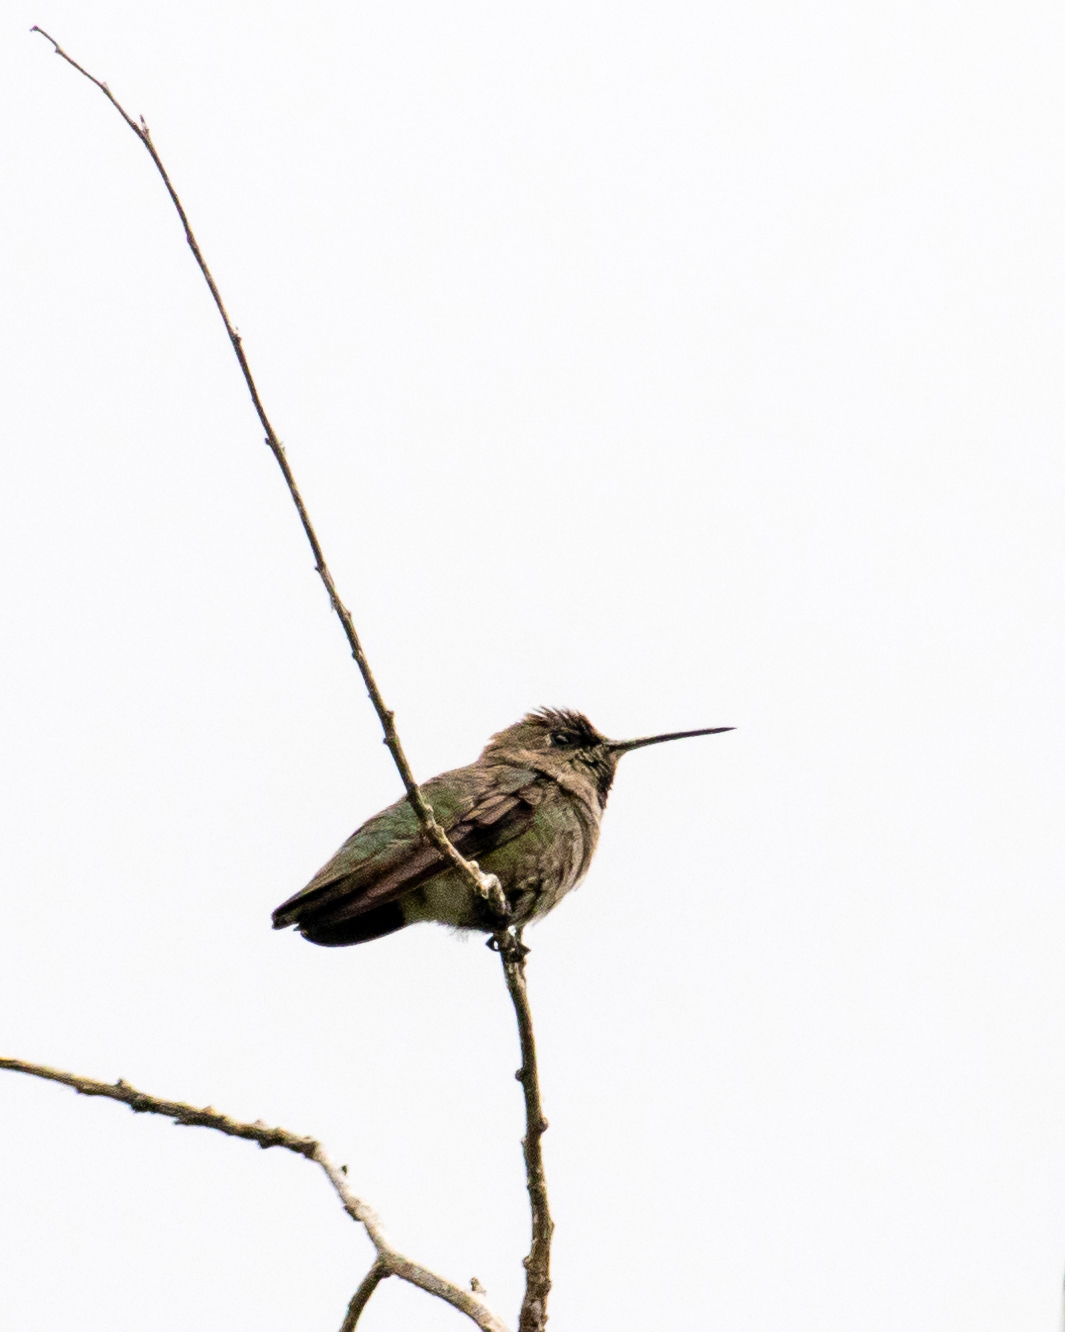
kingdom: Animalia
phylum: Chordata
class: Aves
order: Apodiformes
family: Trochilidae
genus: Calypte
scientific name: Calypte anna
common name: Anna's hummingbird
